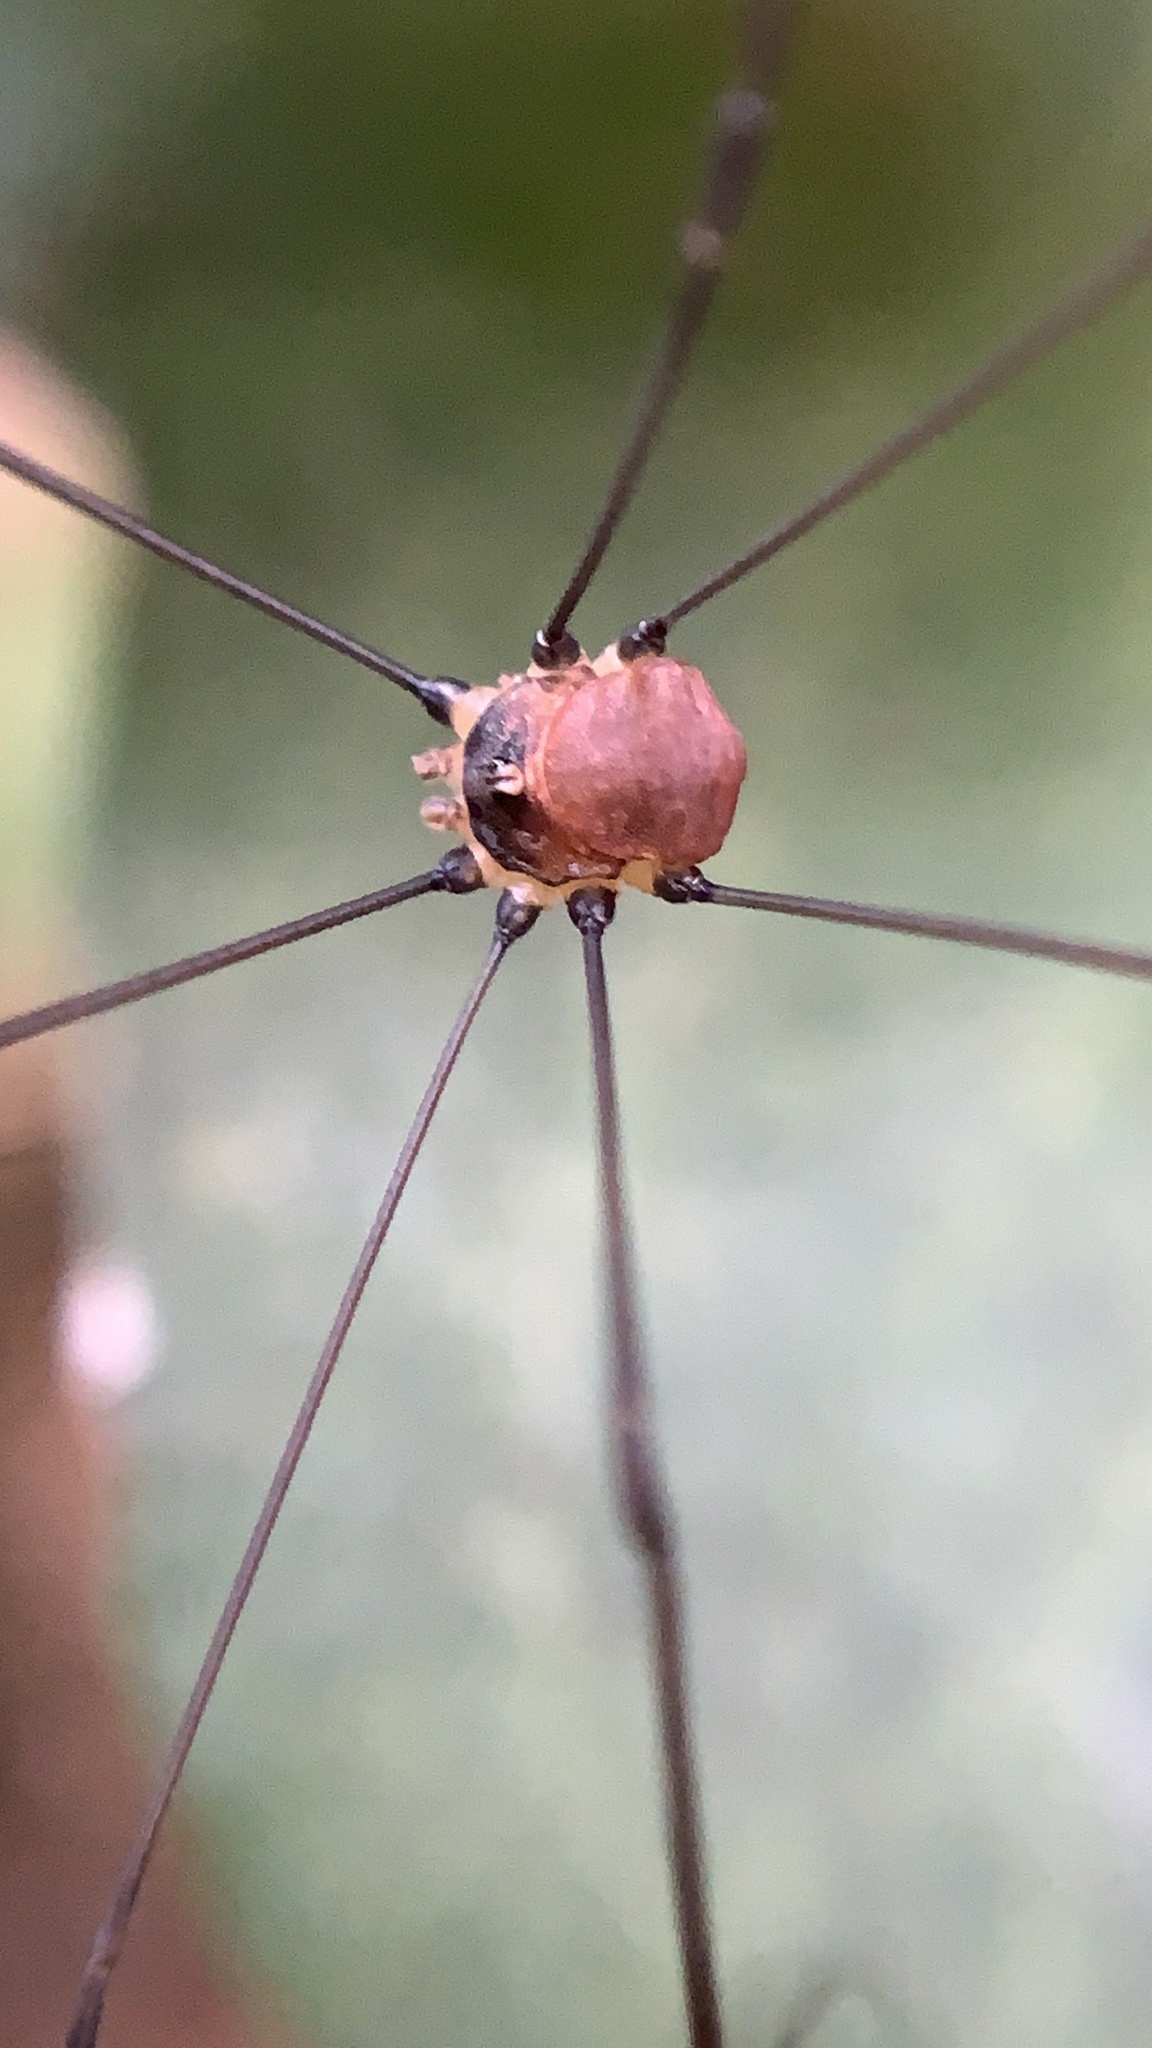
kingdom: Animalia
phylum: Arthropoda
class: Arachnida
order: Opiliones
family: Sclerosomatidae
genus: Leiobunum
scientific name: Leiobunum blackwalli
